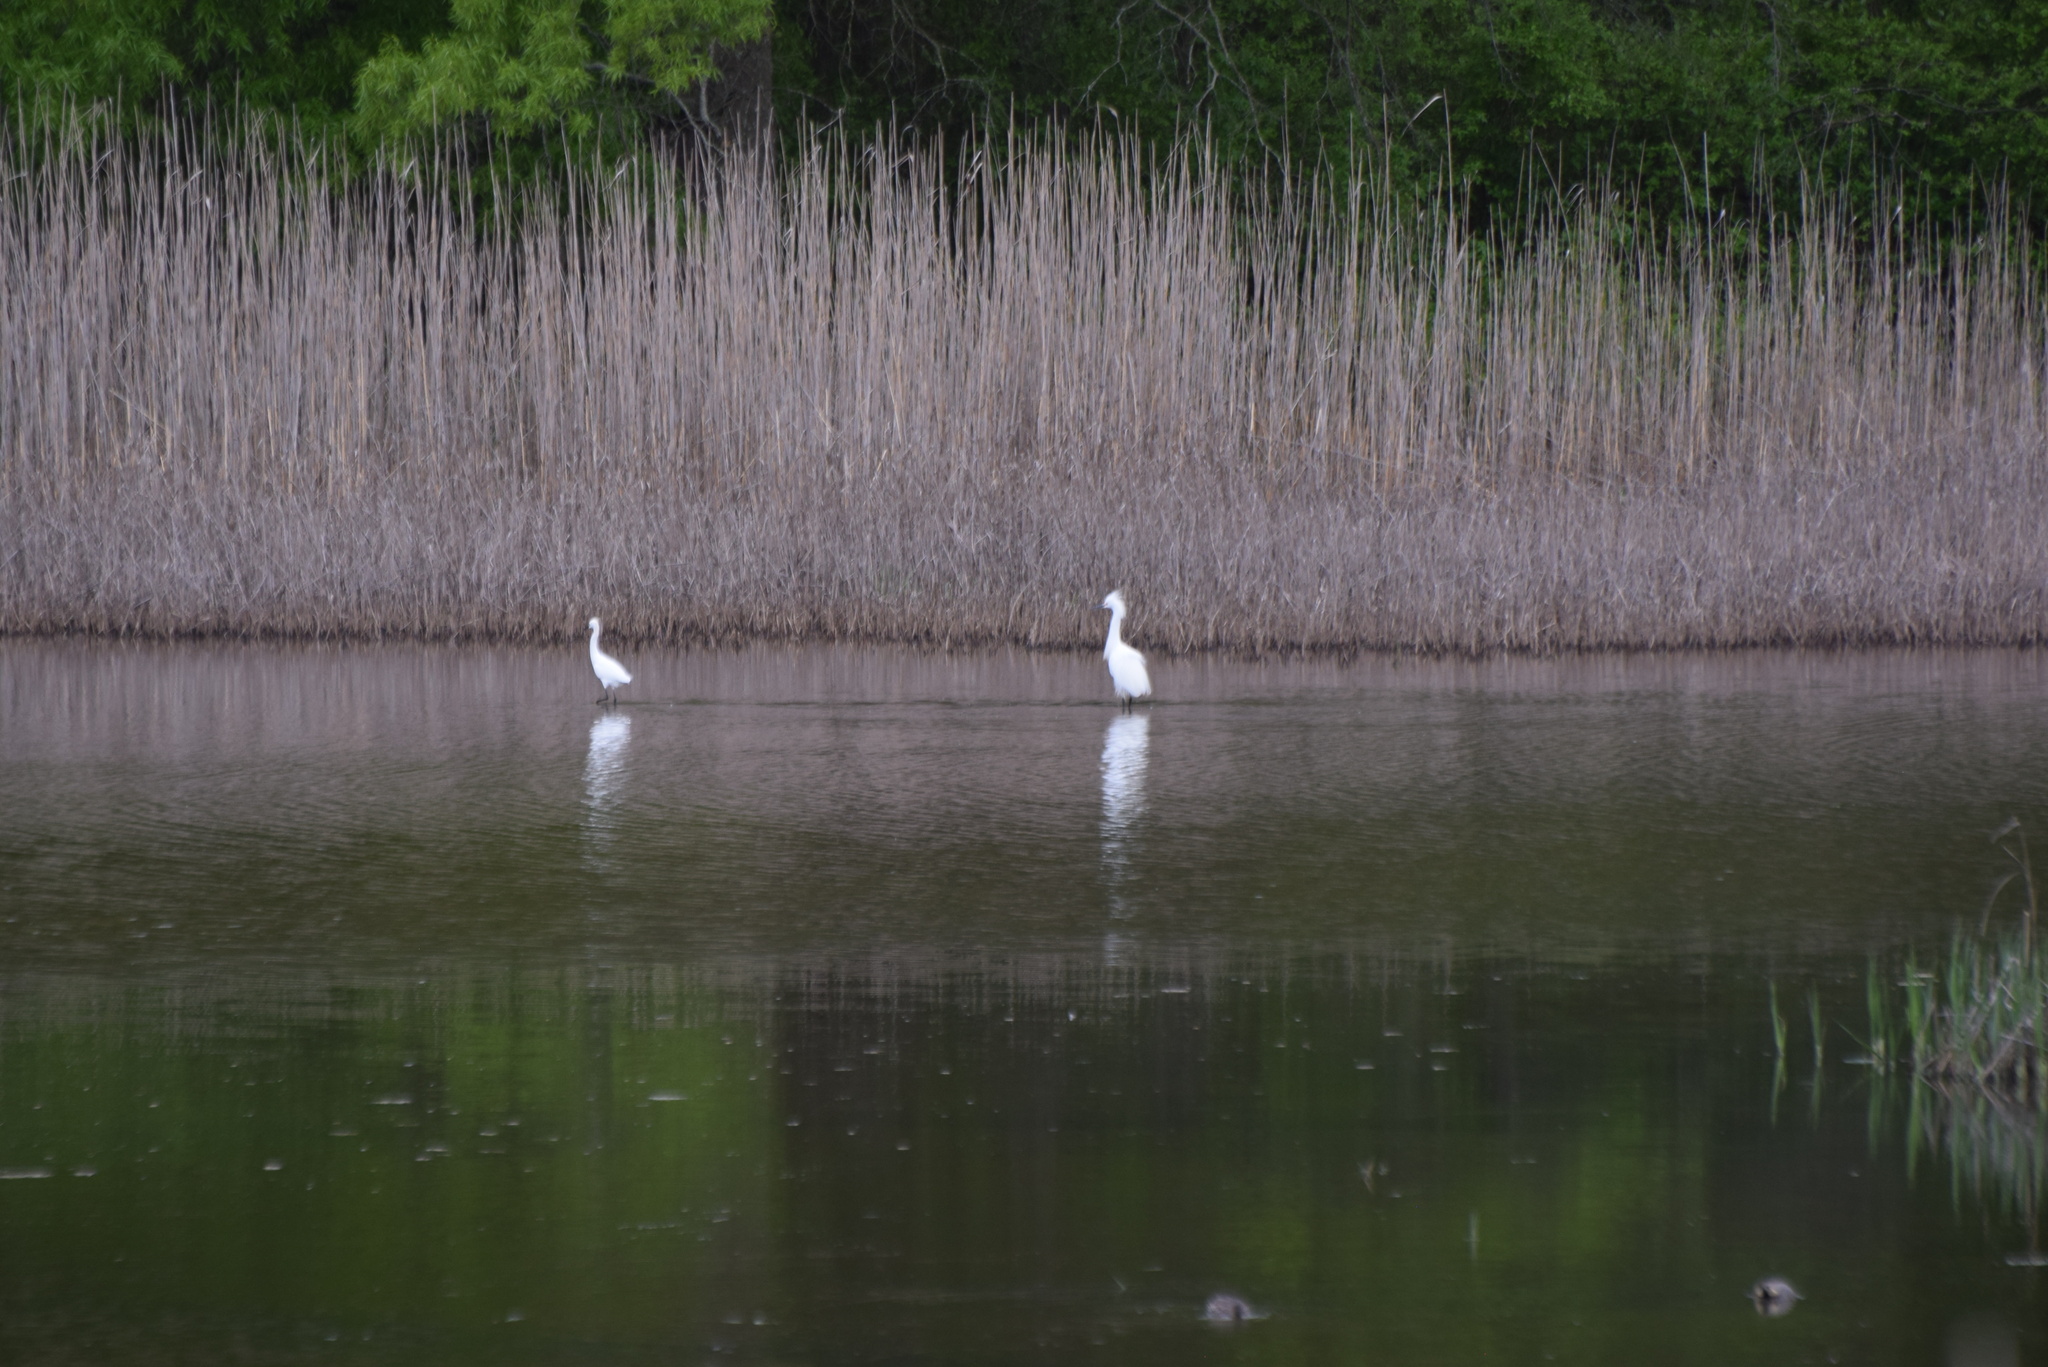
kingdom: Animalia
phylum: Chordata
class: Aves
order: Pelecaniformes
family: Ardeidae
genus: Egretta
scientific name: Egretta thula
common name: Snowy egret
